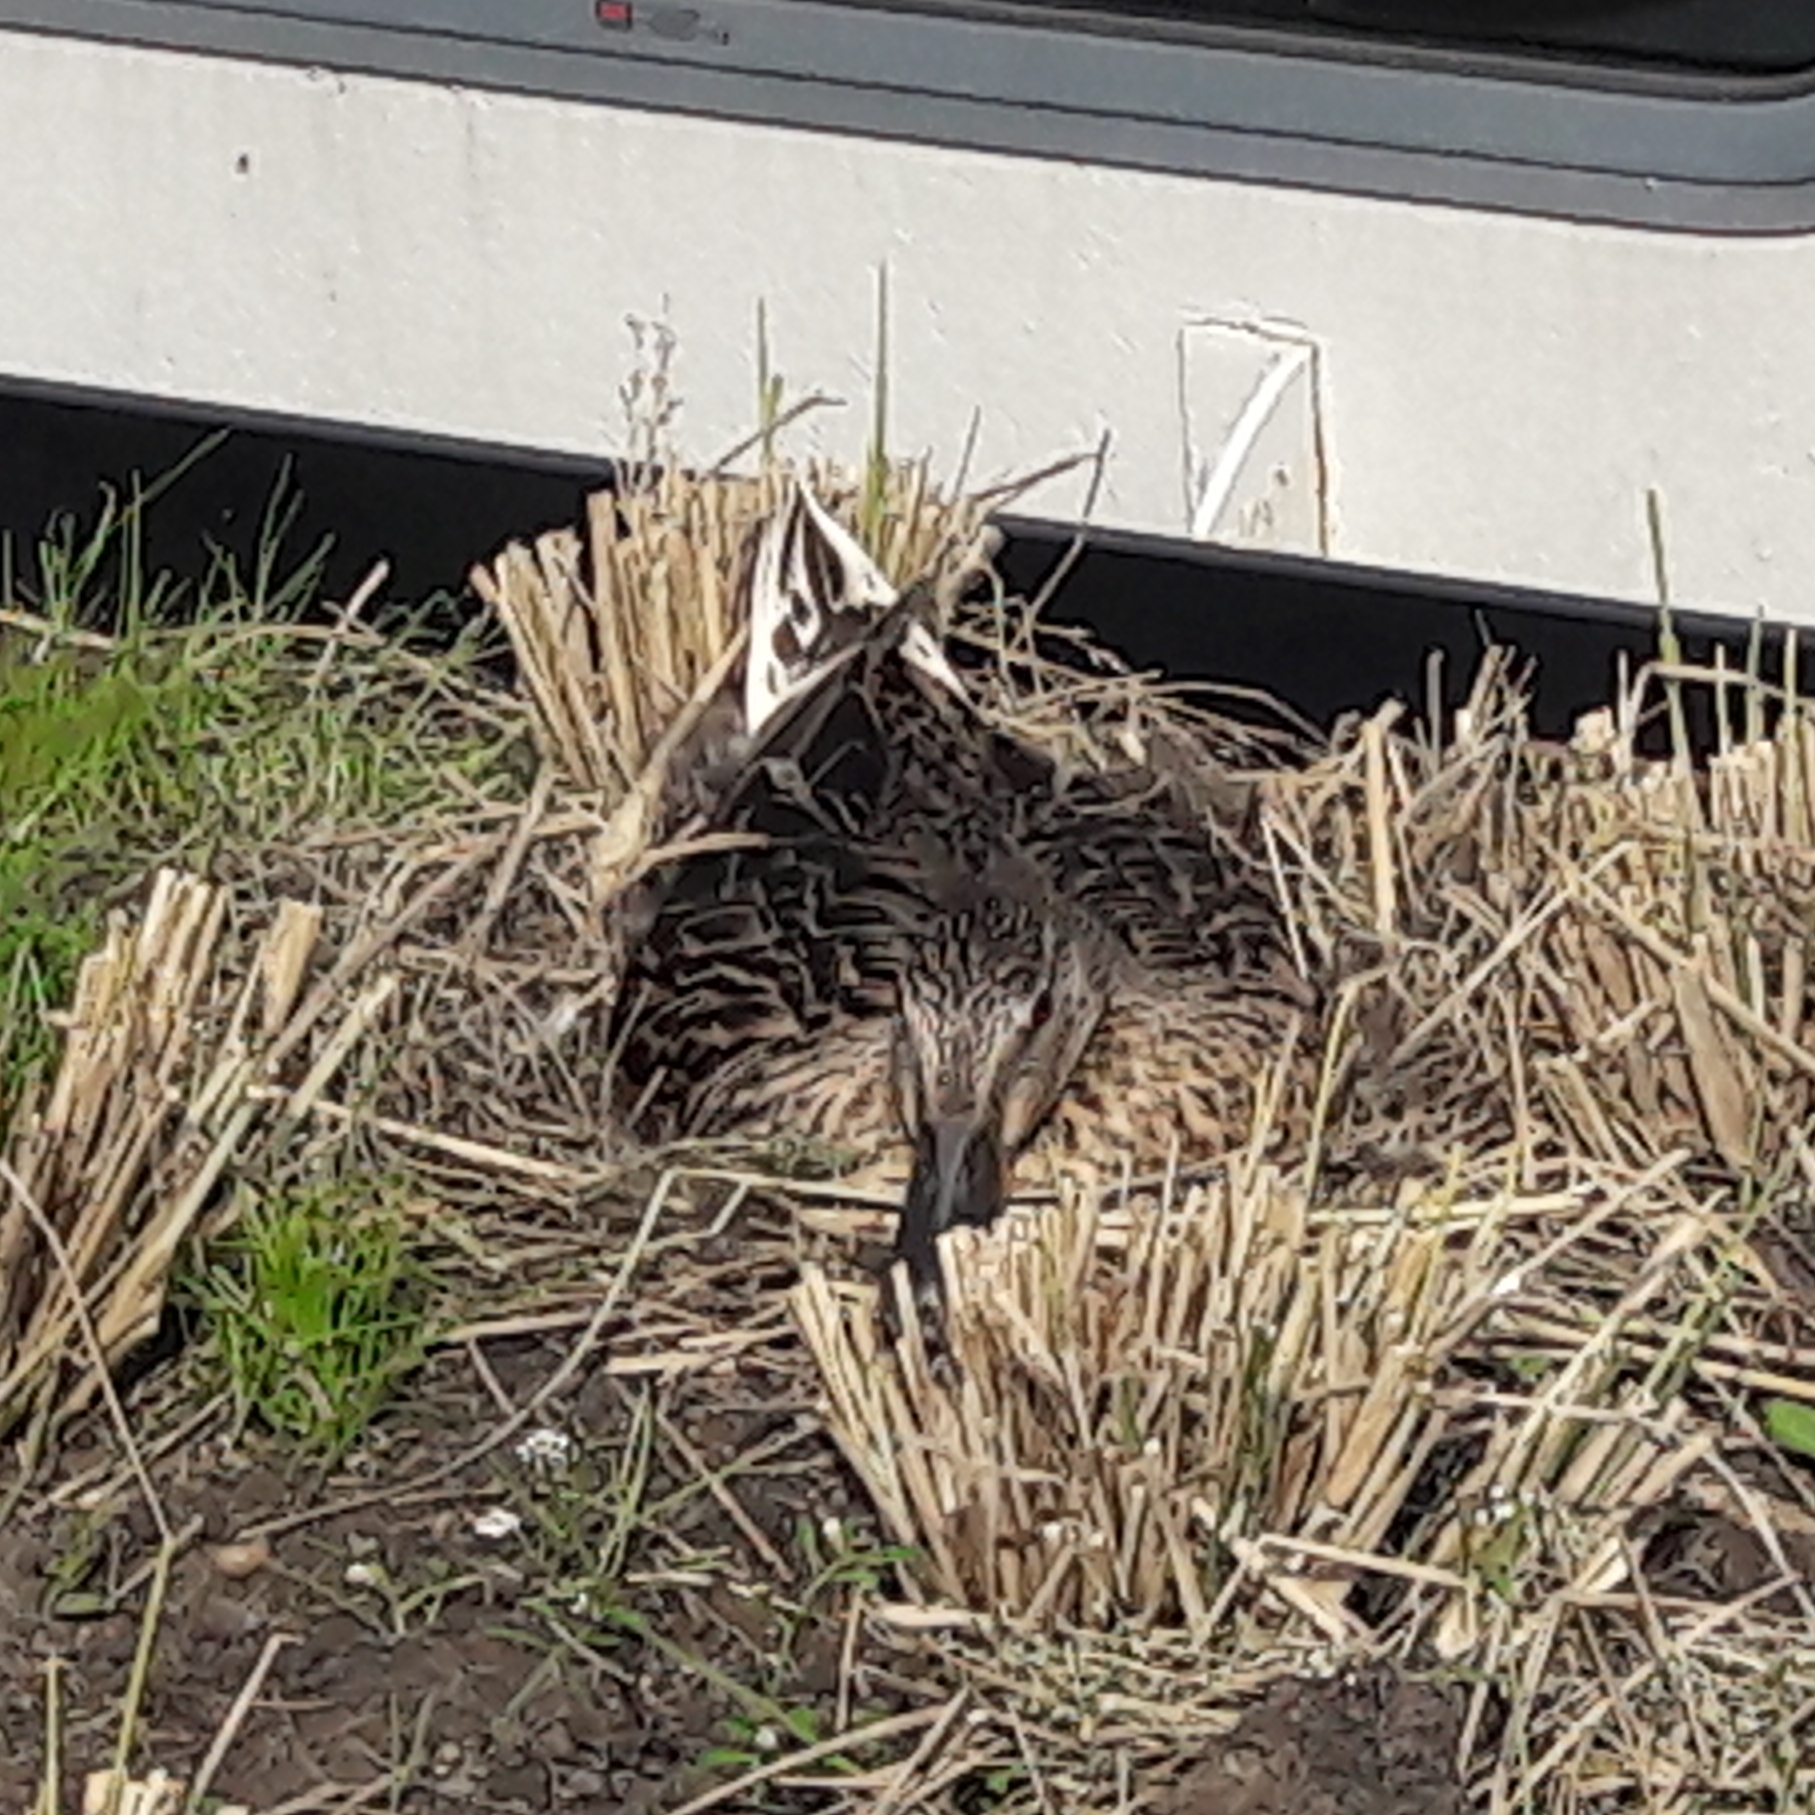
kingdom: Animalia
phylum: Chordata
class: Aves
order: Anseriformes
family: Anatidae
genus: Anas
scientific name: Anas platyrhynchos
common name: Mallard
